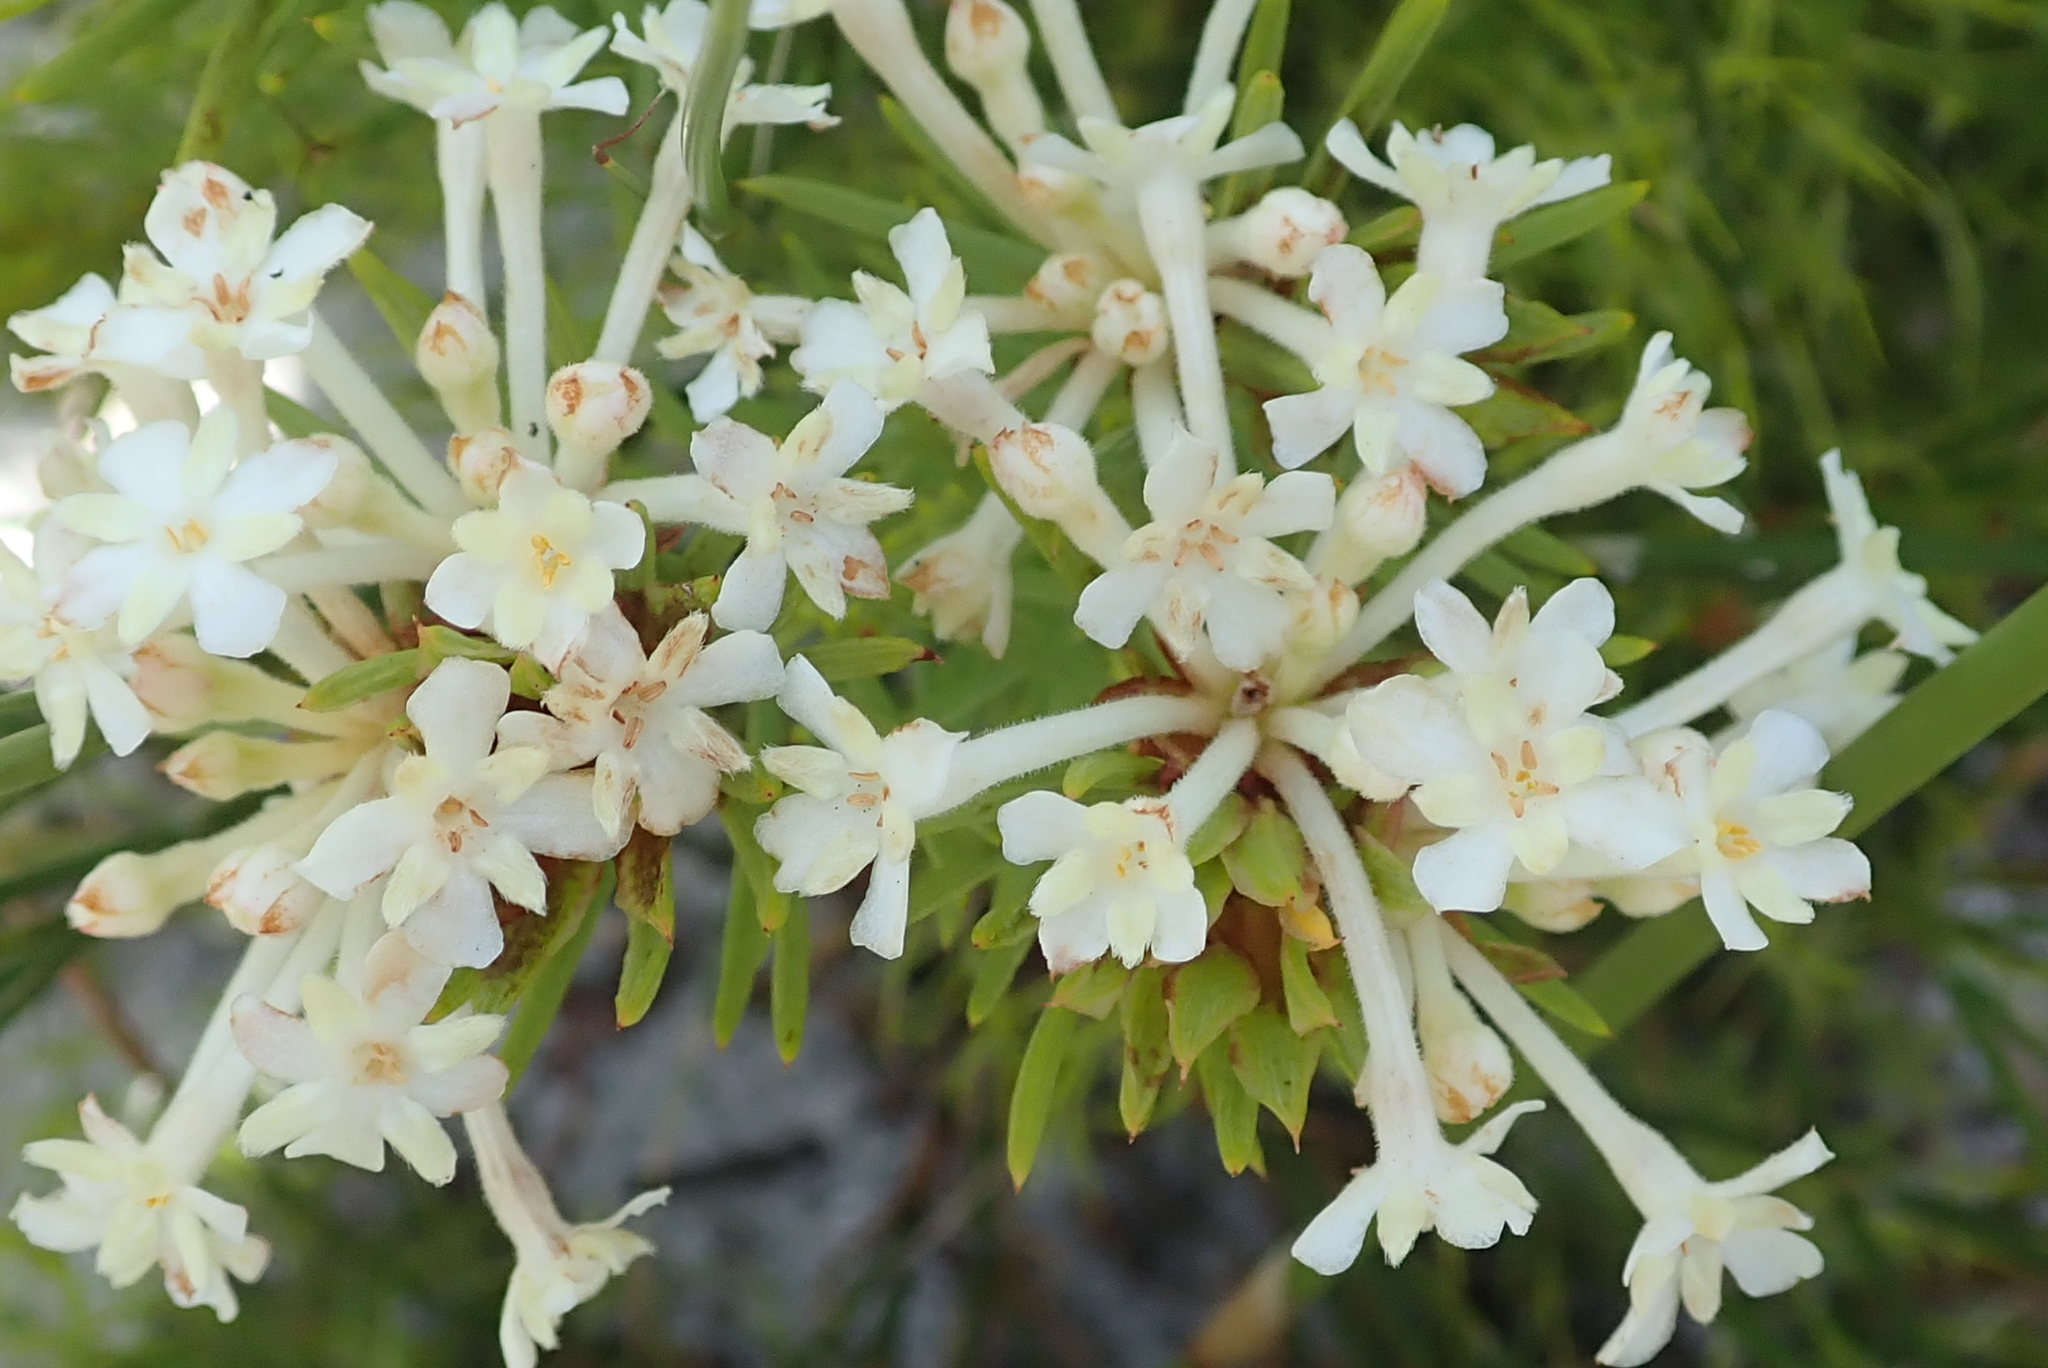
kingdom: Plantae
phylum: Tracheophyta
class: Magnoliopsida
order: Malvales
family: Thymelaeaceae
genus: Gnidia
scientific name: Gnidia pinifolia
